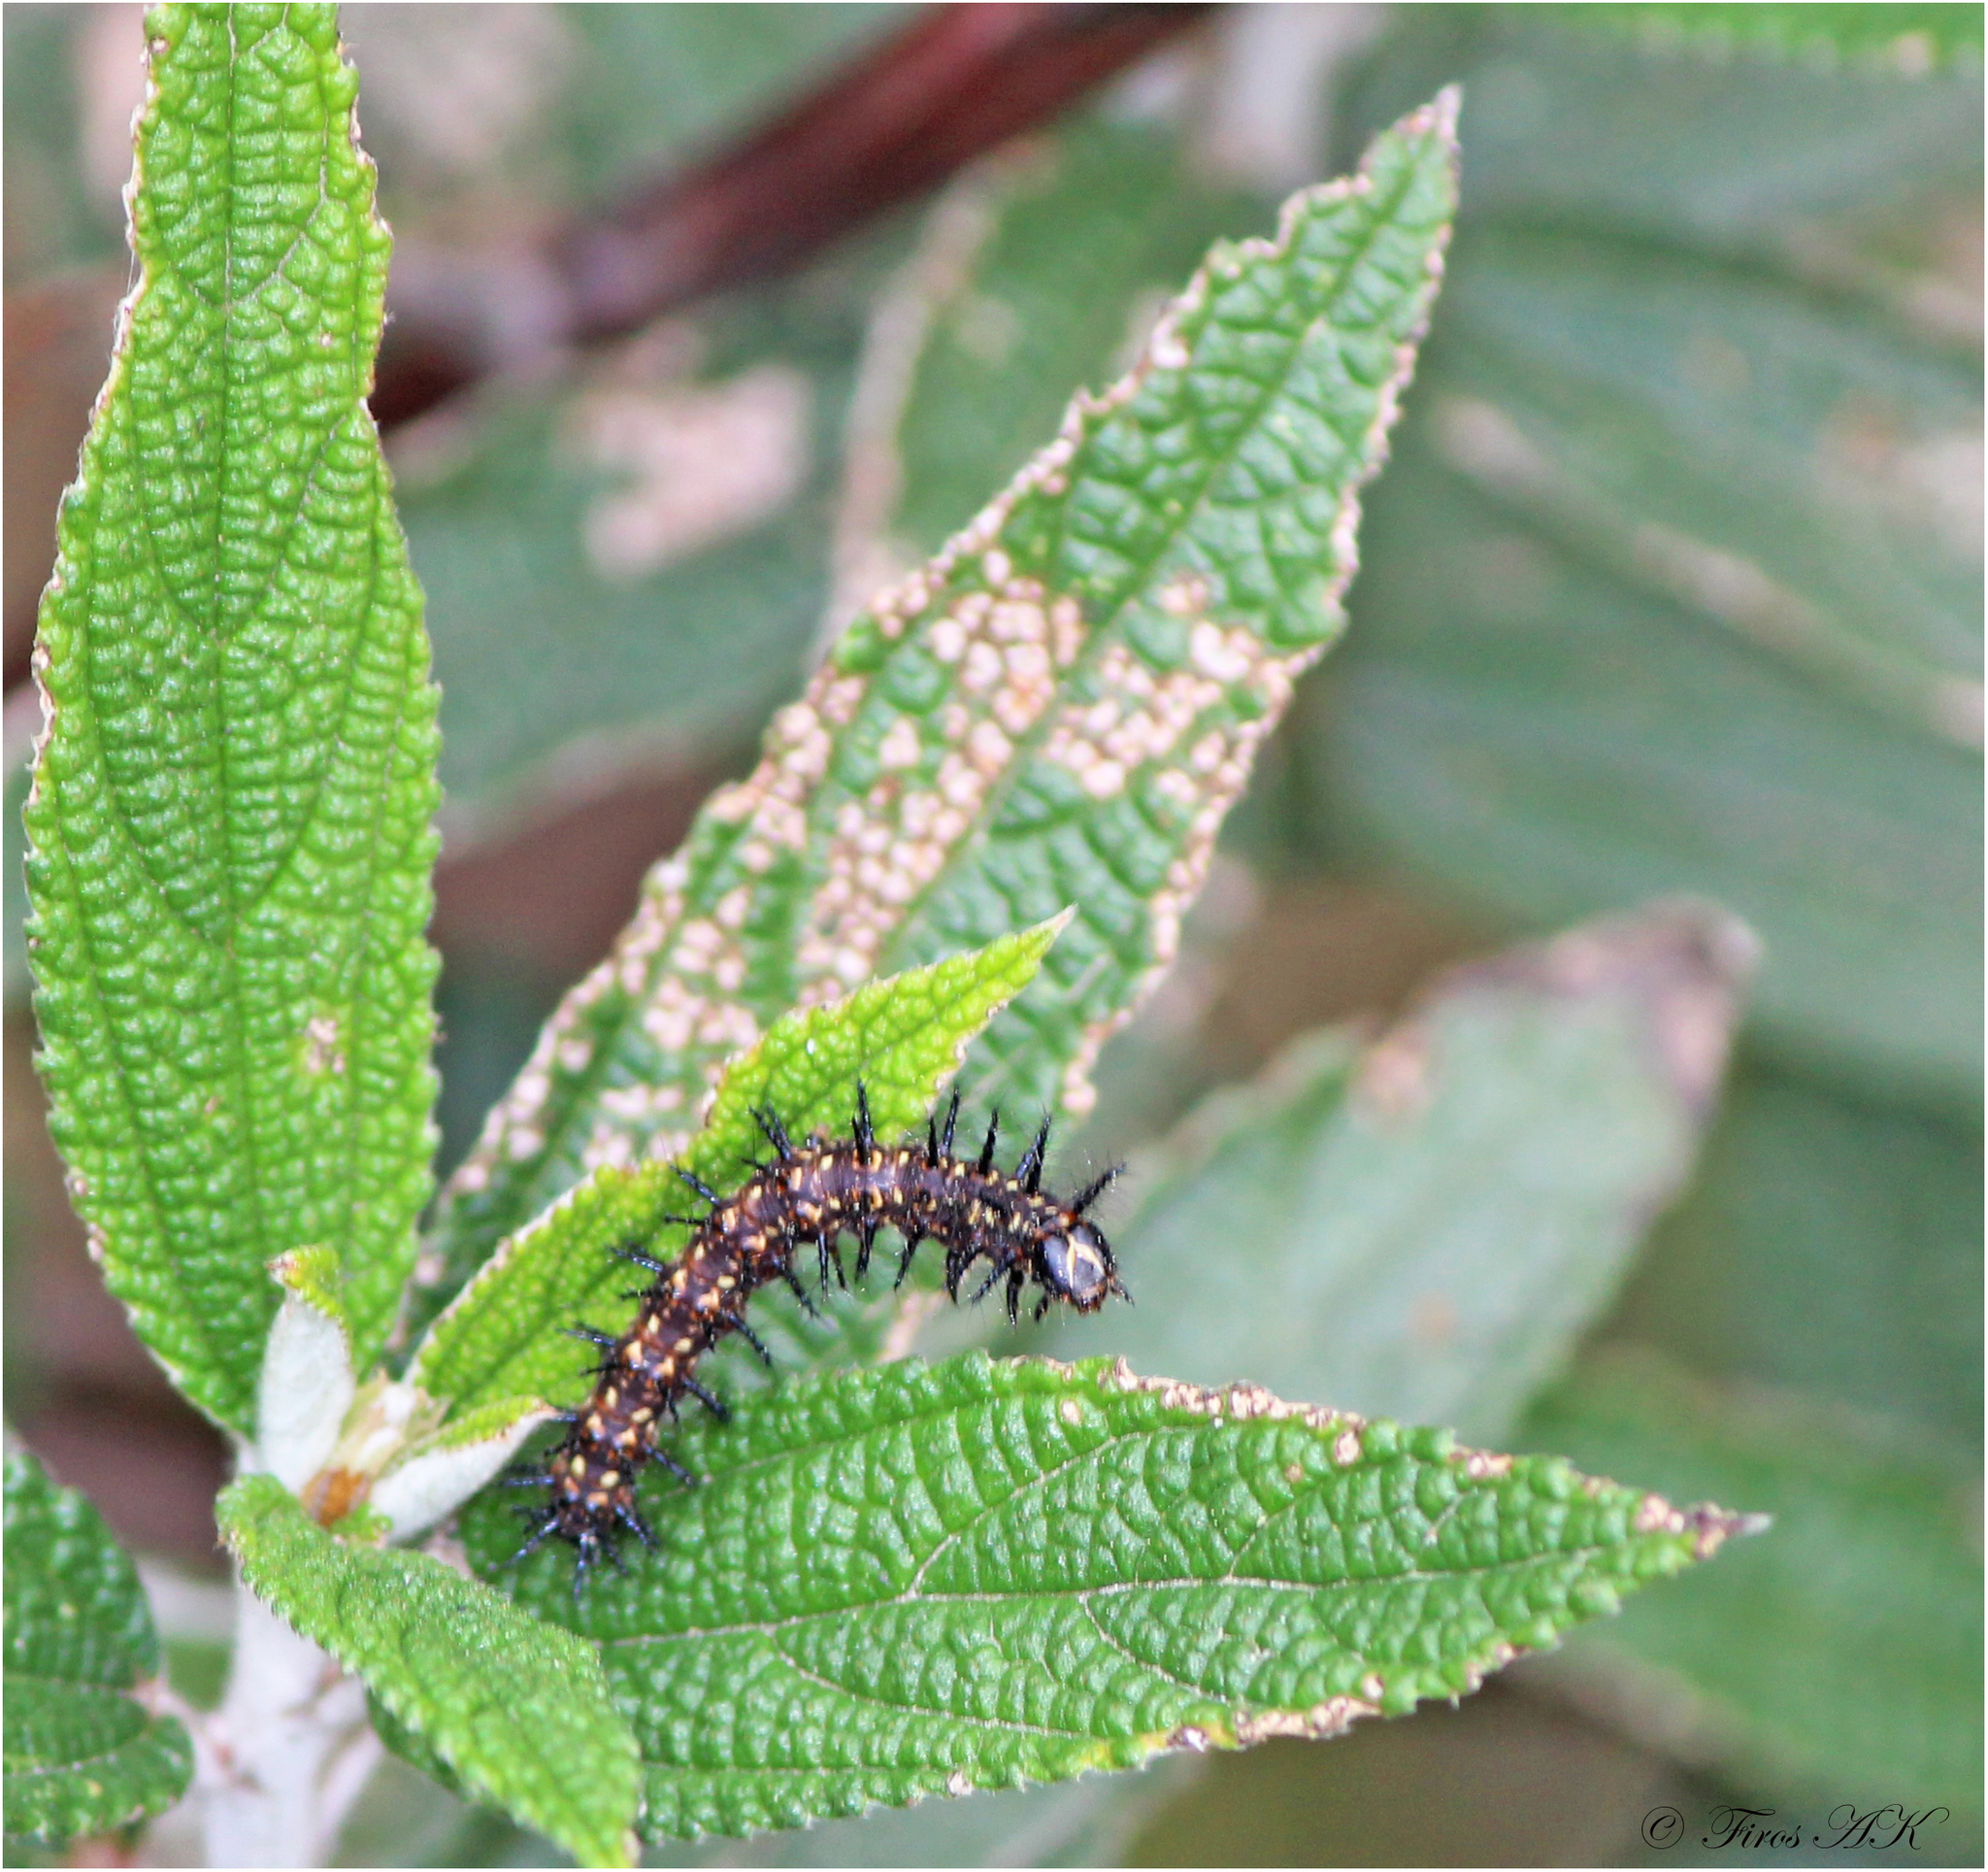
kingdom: Animalia
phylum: Arthropoda
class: Insecta
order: Lepidoptera
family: Nymphalidae
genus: Acraea
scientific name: Acraea Telchinia issoria
